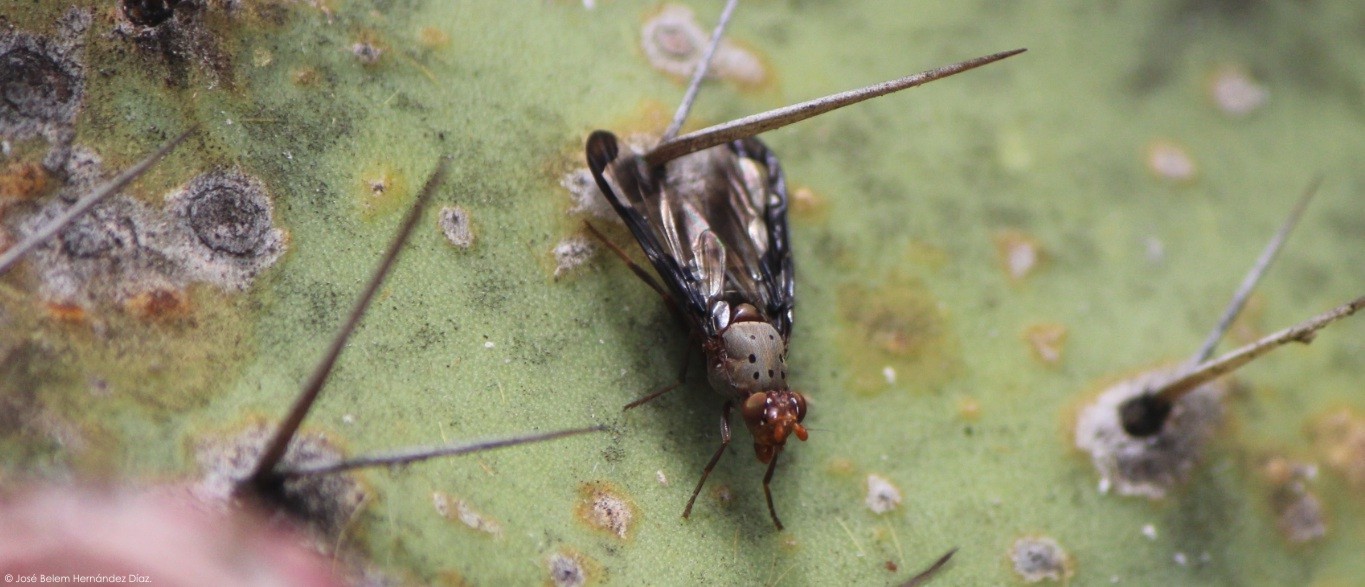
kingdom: Animalia
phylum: Arthropoda
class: Insecta
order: Diptera
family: Ulidiidae
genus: Diacrita
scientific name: Diacrita costalis
